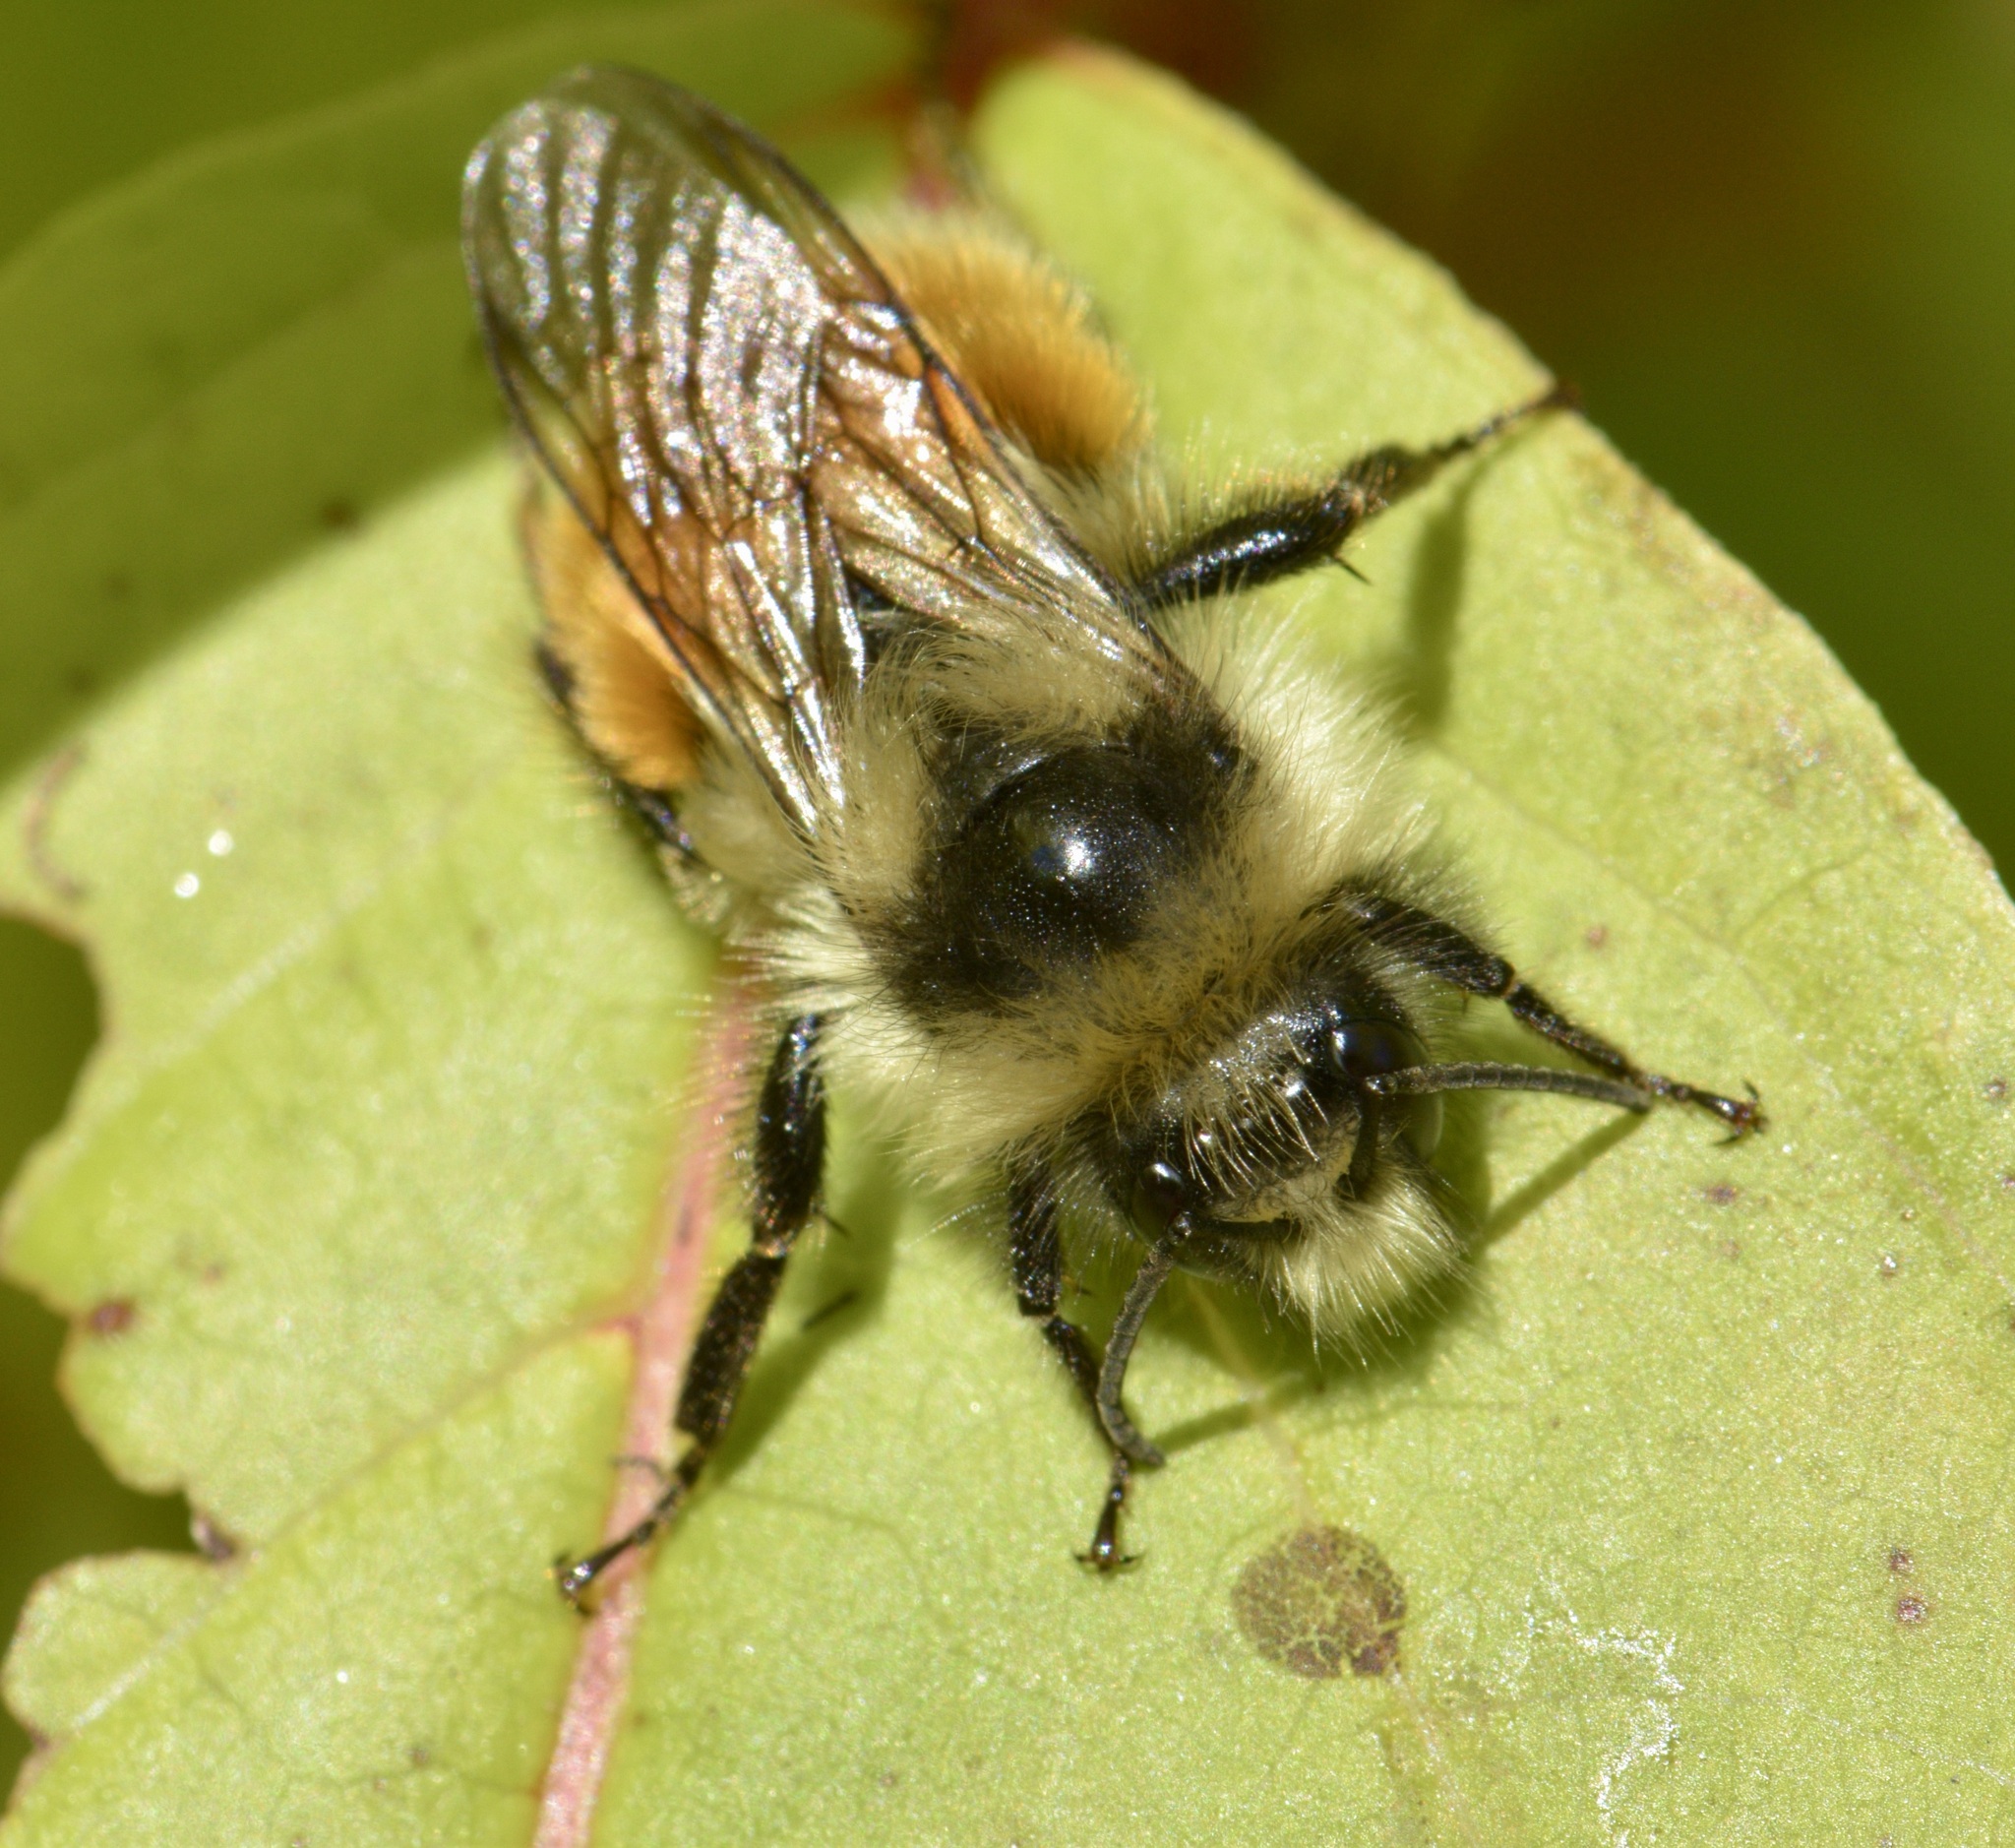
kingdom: Animalia
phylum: Arthropoda
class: Insecta
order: Hymenoptera
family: Apidae
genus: Bombus
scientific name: Bombus ternarius
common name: Tri-colored bumble bee
